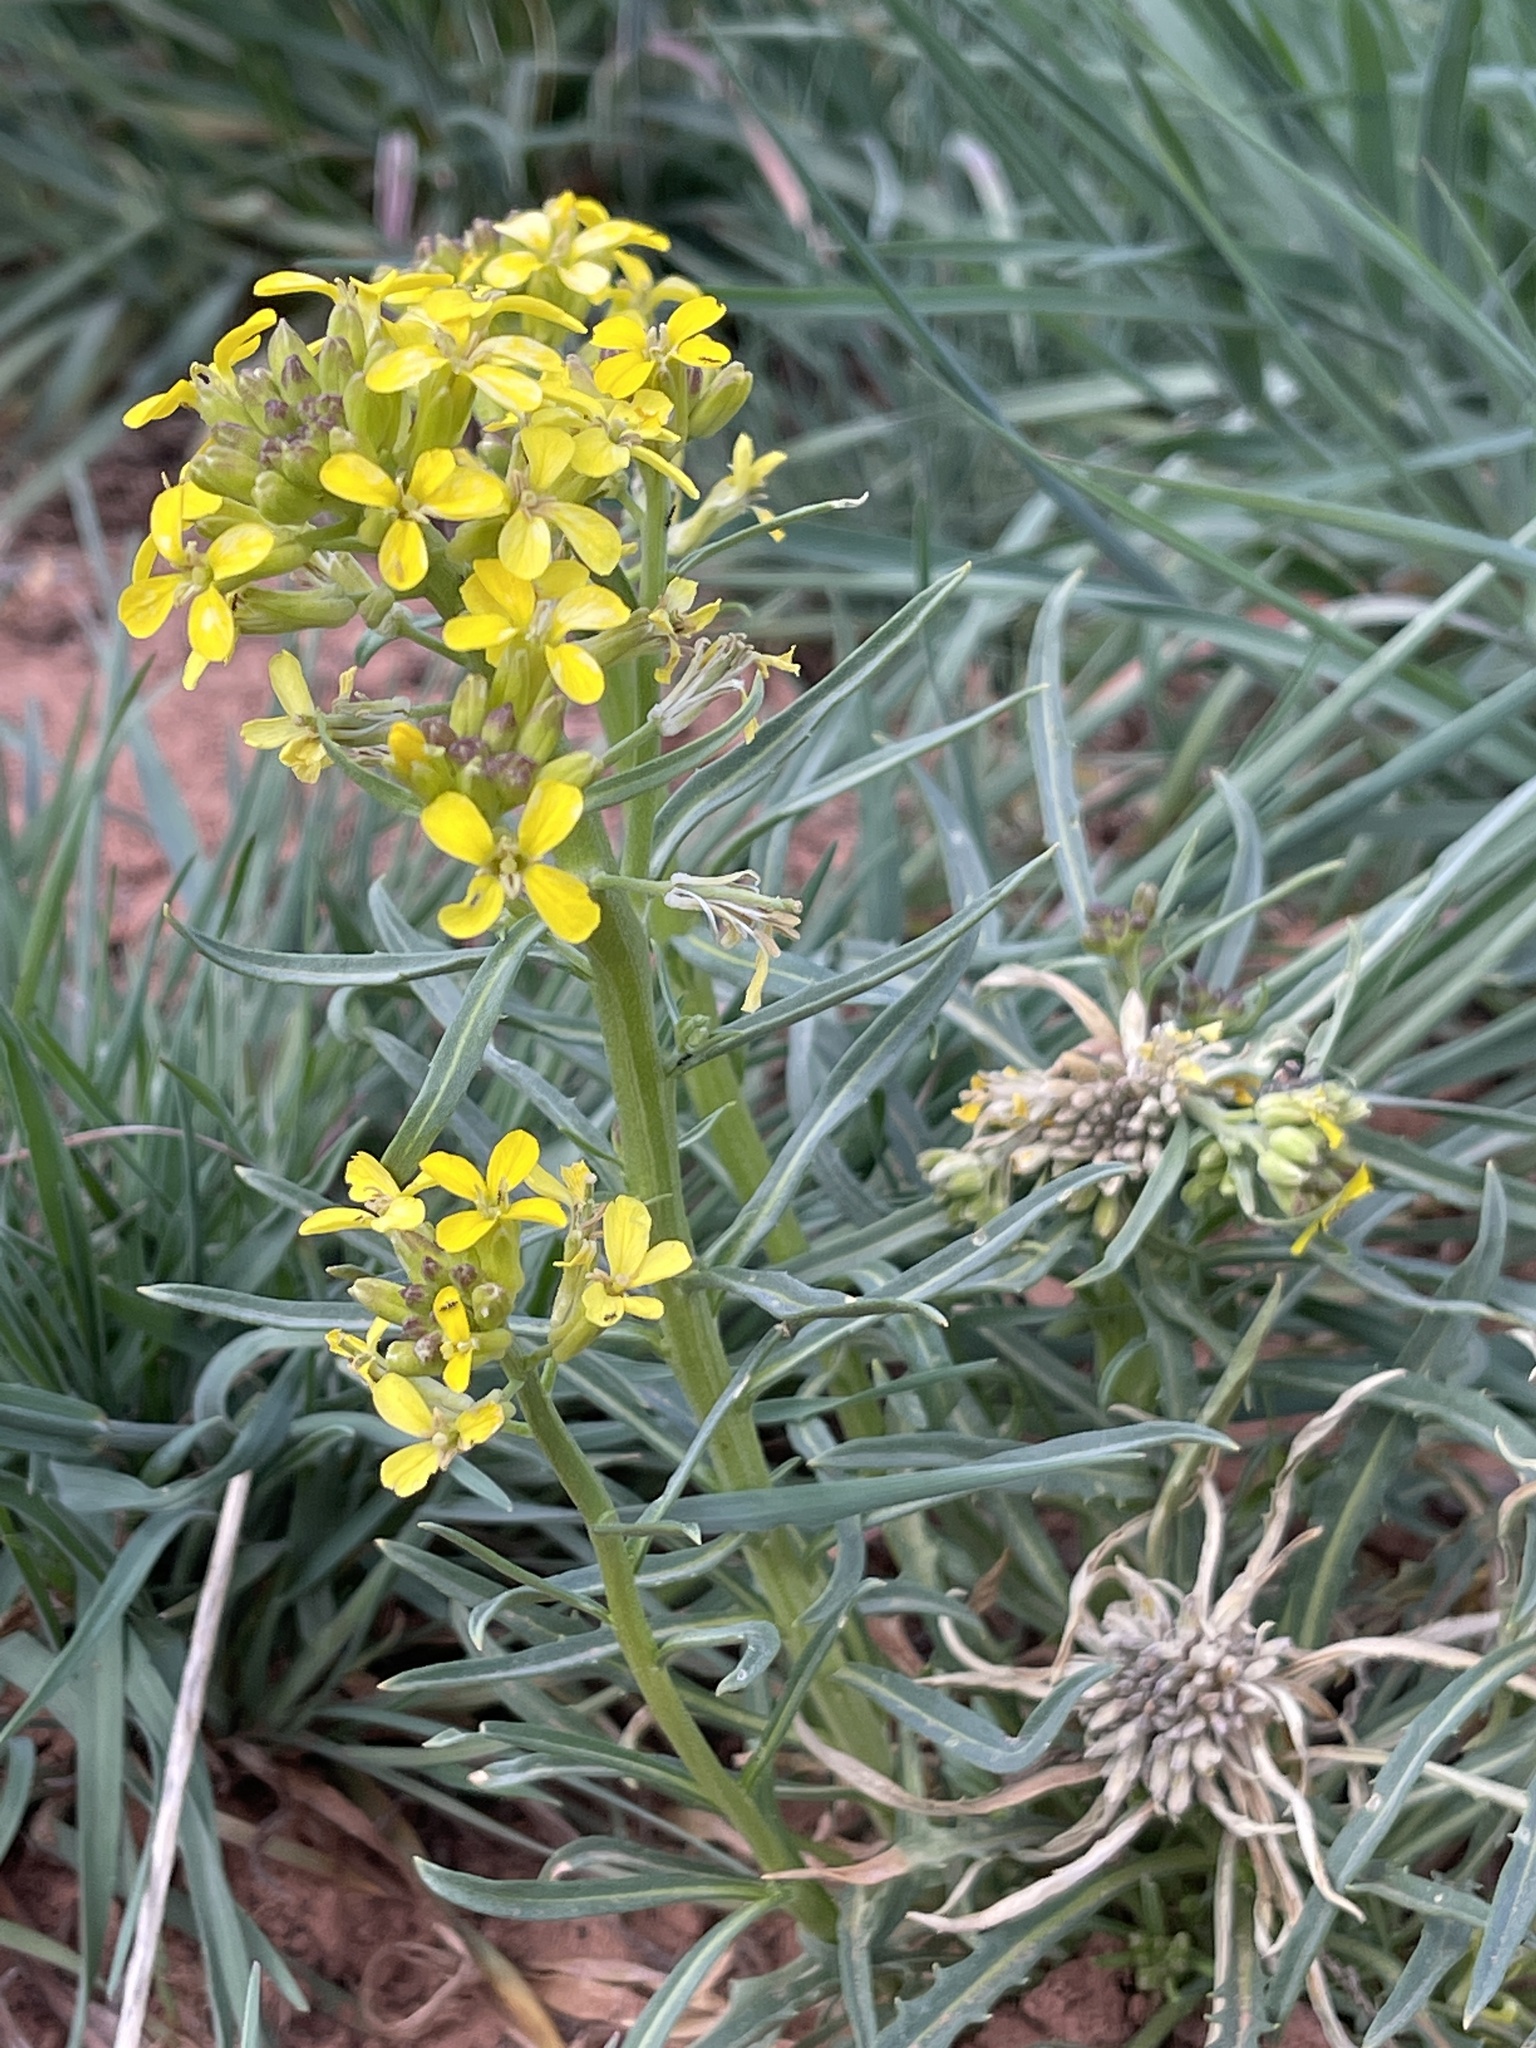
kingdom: Plantae
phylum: Tracheophyta
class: Magnoliopsida
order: Brassicales
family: Brassicaceae
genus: Erysimum
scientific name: Erysimum capitatum
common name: Western wallflower
